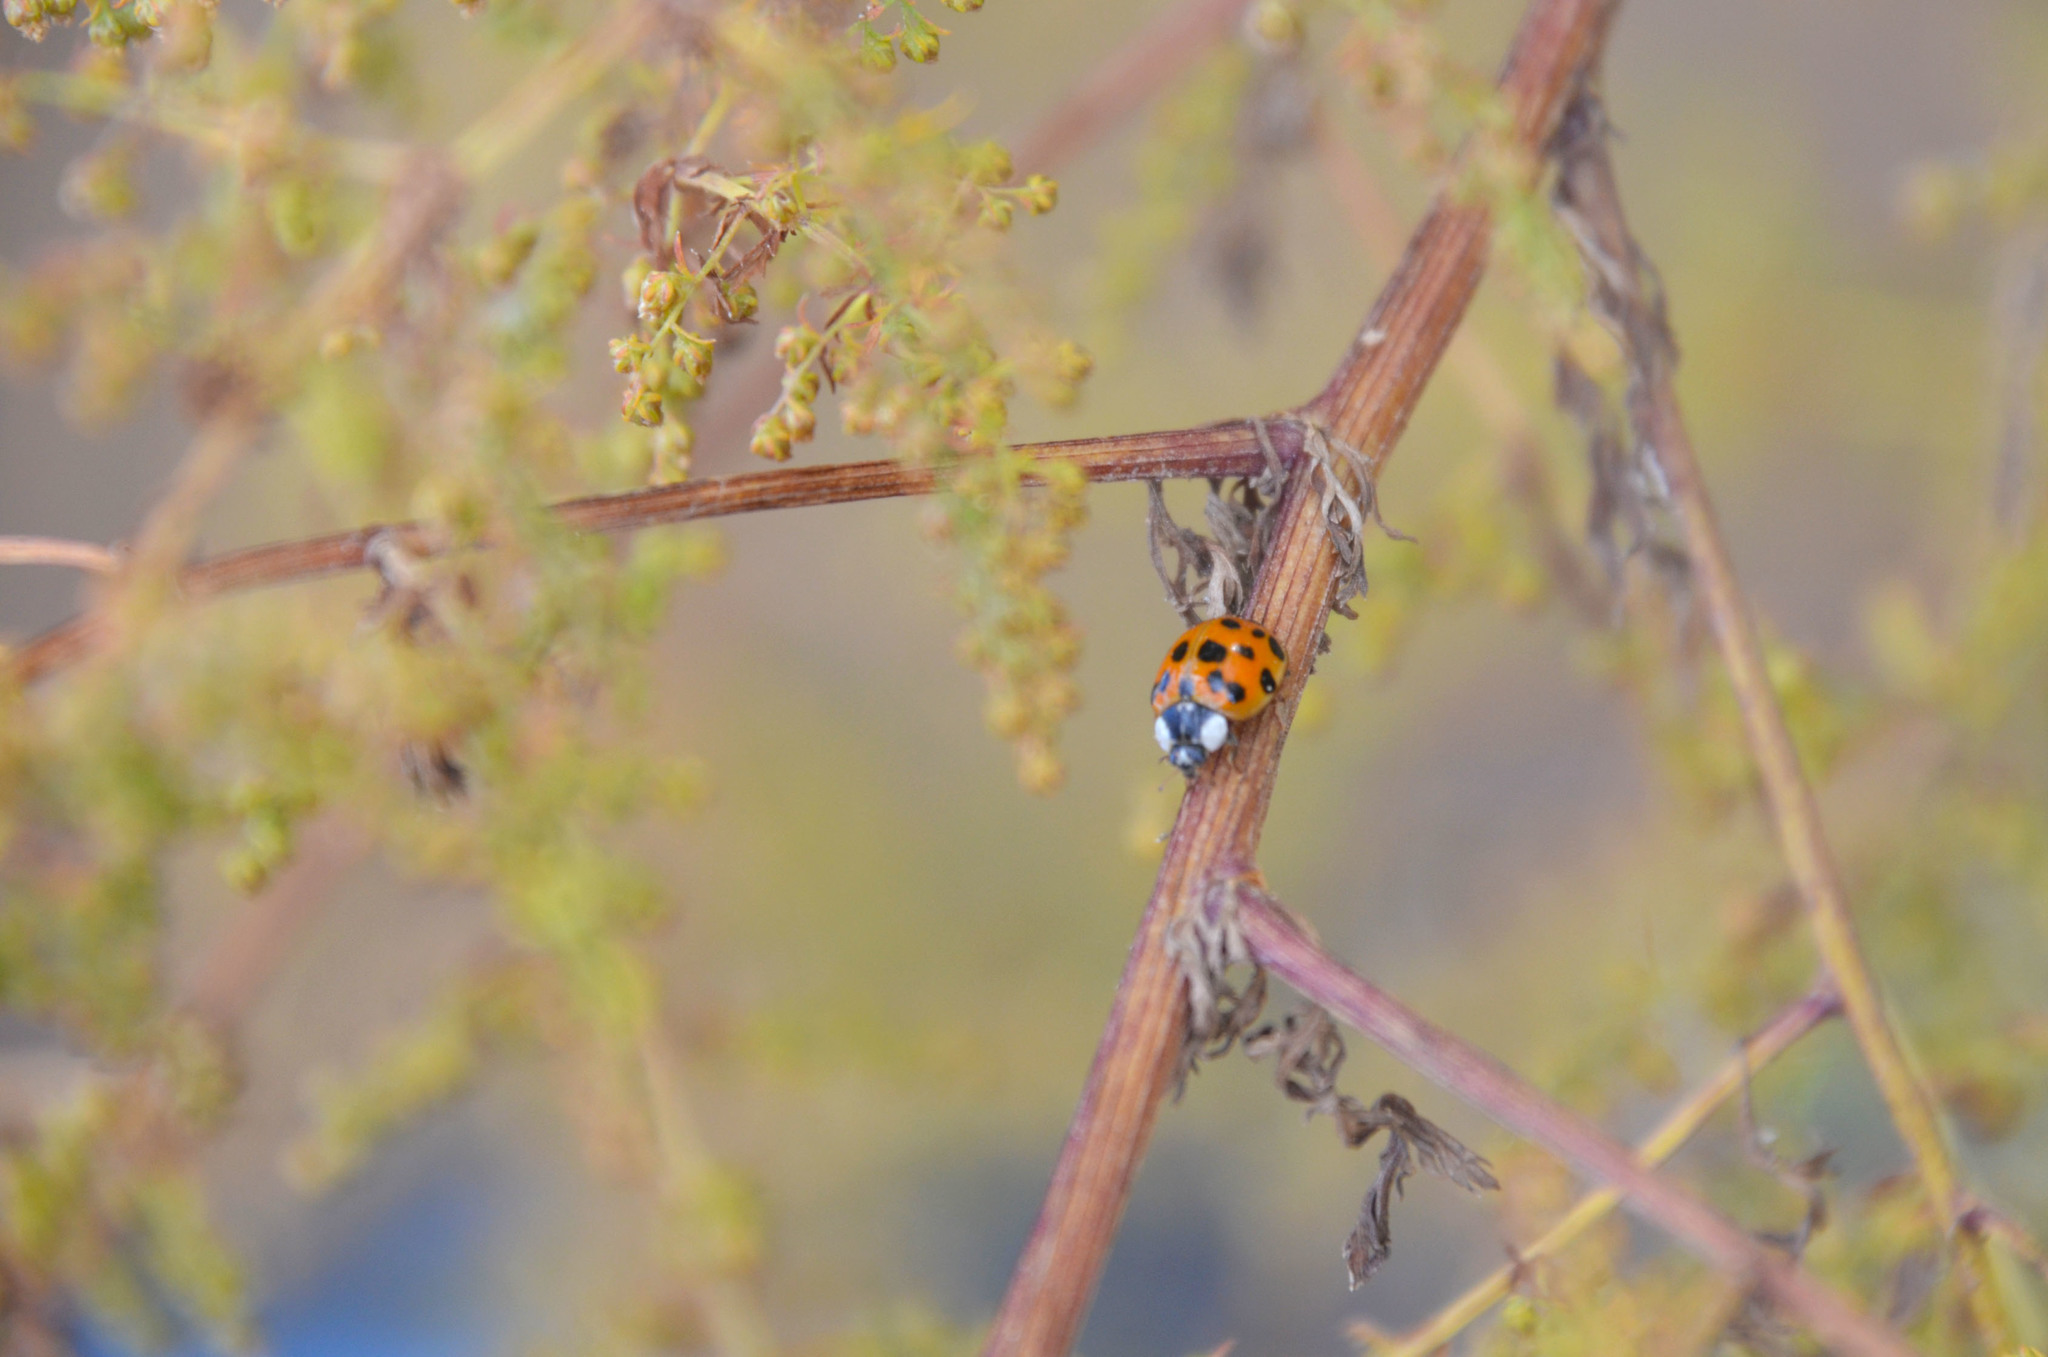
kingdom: Animalia
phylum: Arthropoda
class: Insecta
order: Coleoptera
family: Coccinellidae
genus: Harmonia
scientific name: Harmonia axyridis
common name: Harlequin ladybird
